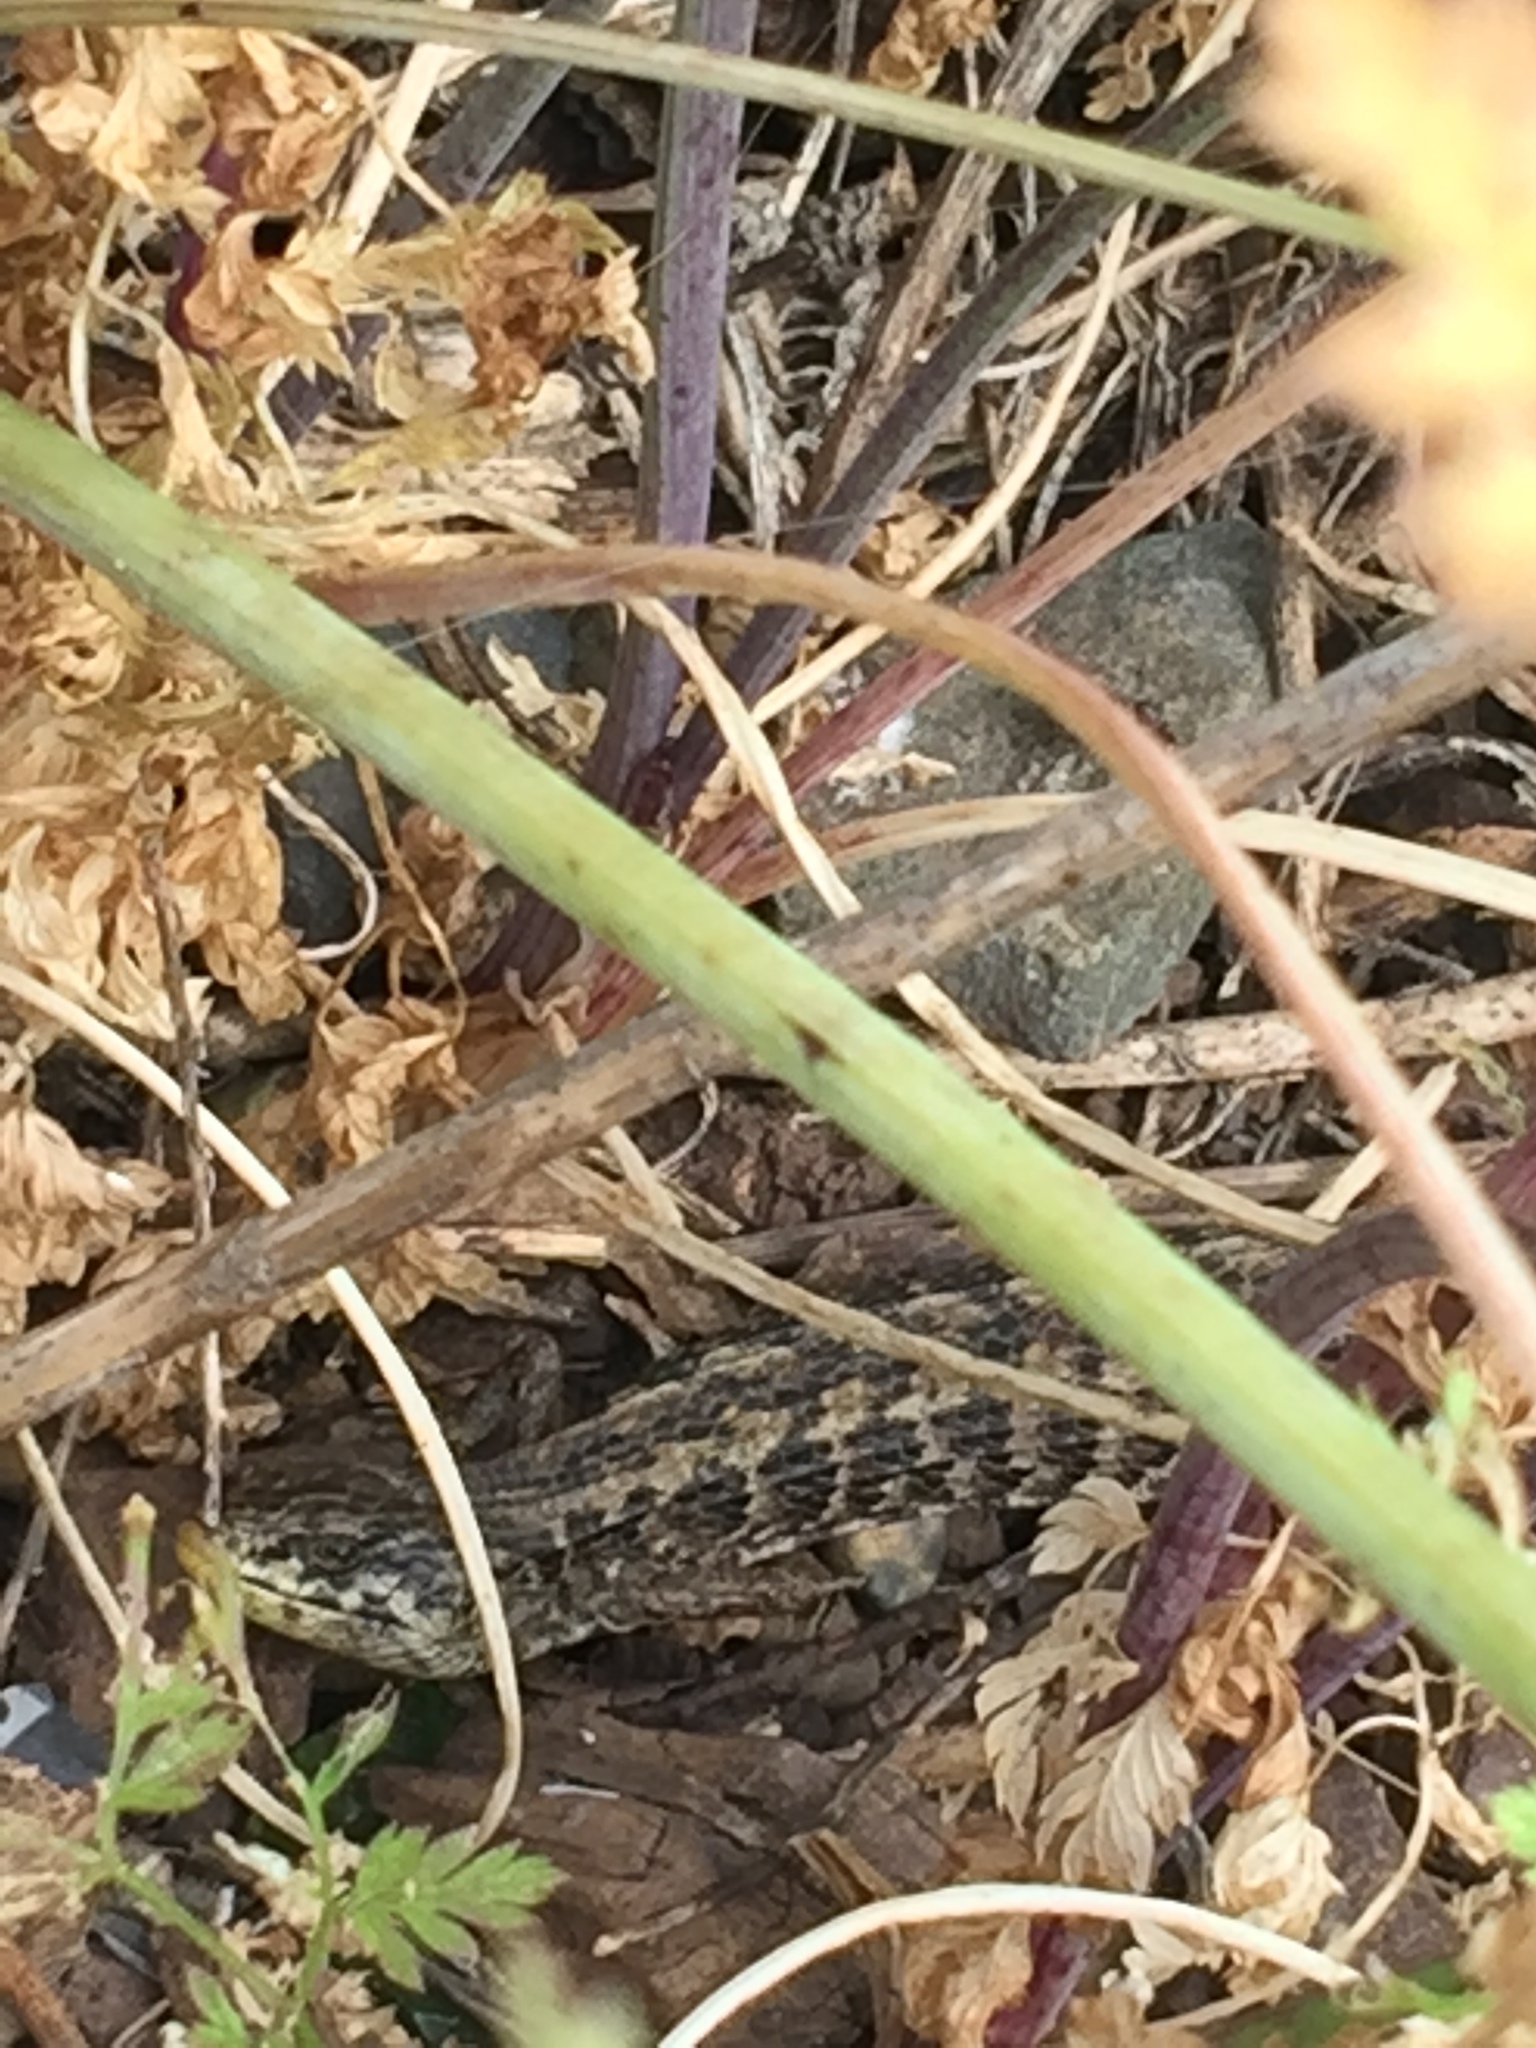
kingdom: Animalia
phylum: Chordata
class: Squamata
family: Anguidae
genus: Elgaria
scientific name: Elgaria coerulea
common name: Northern alligator lizard
